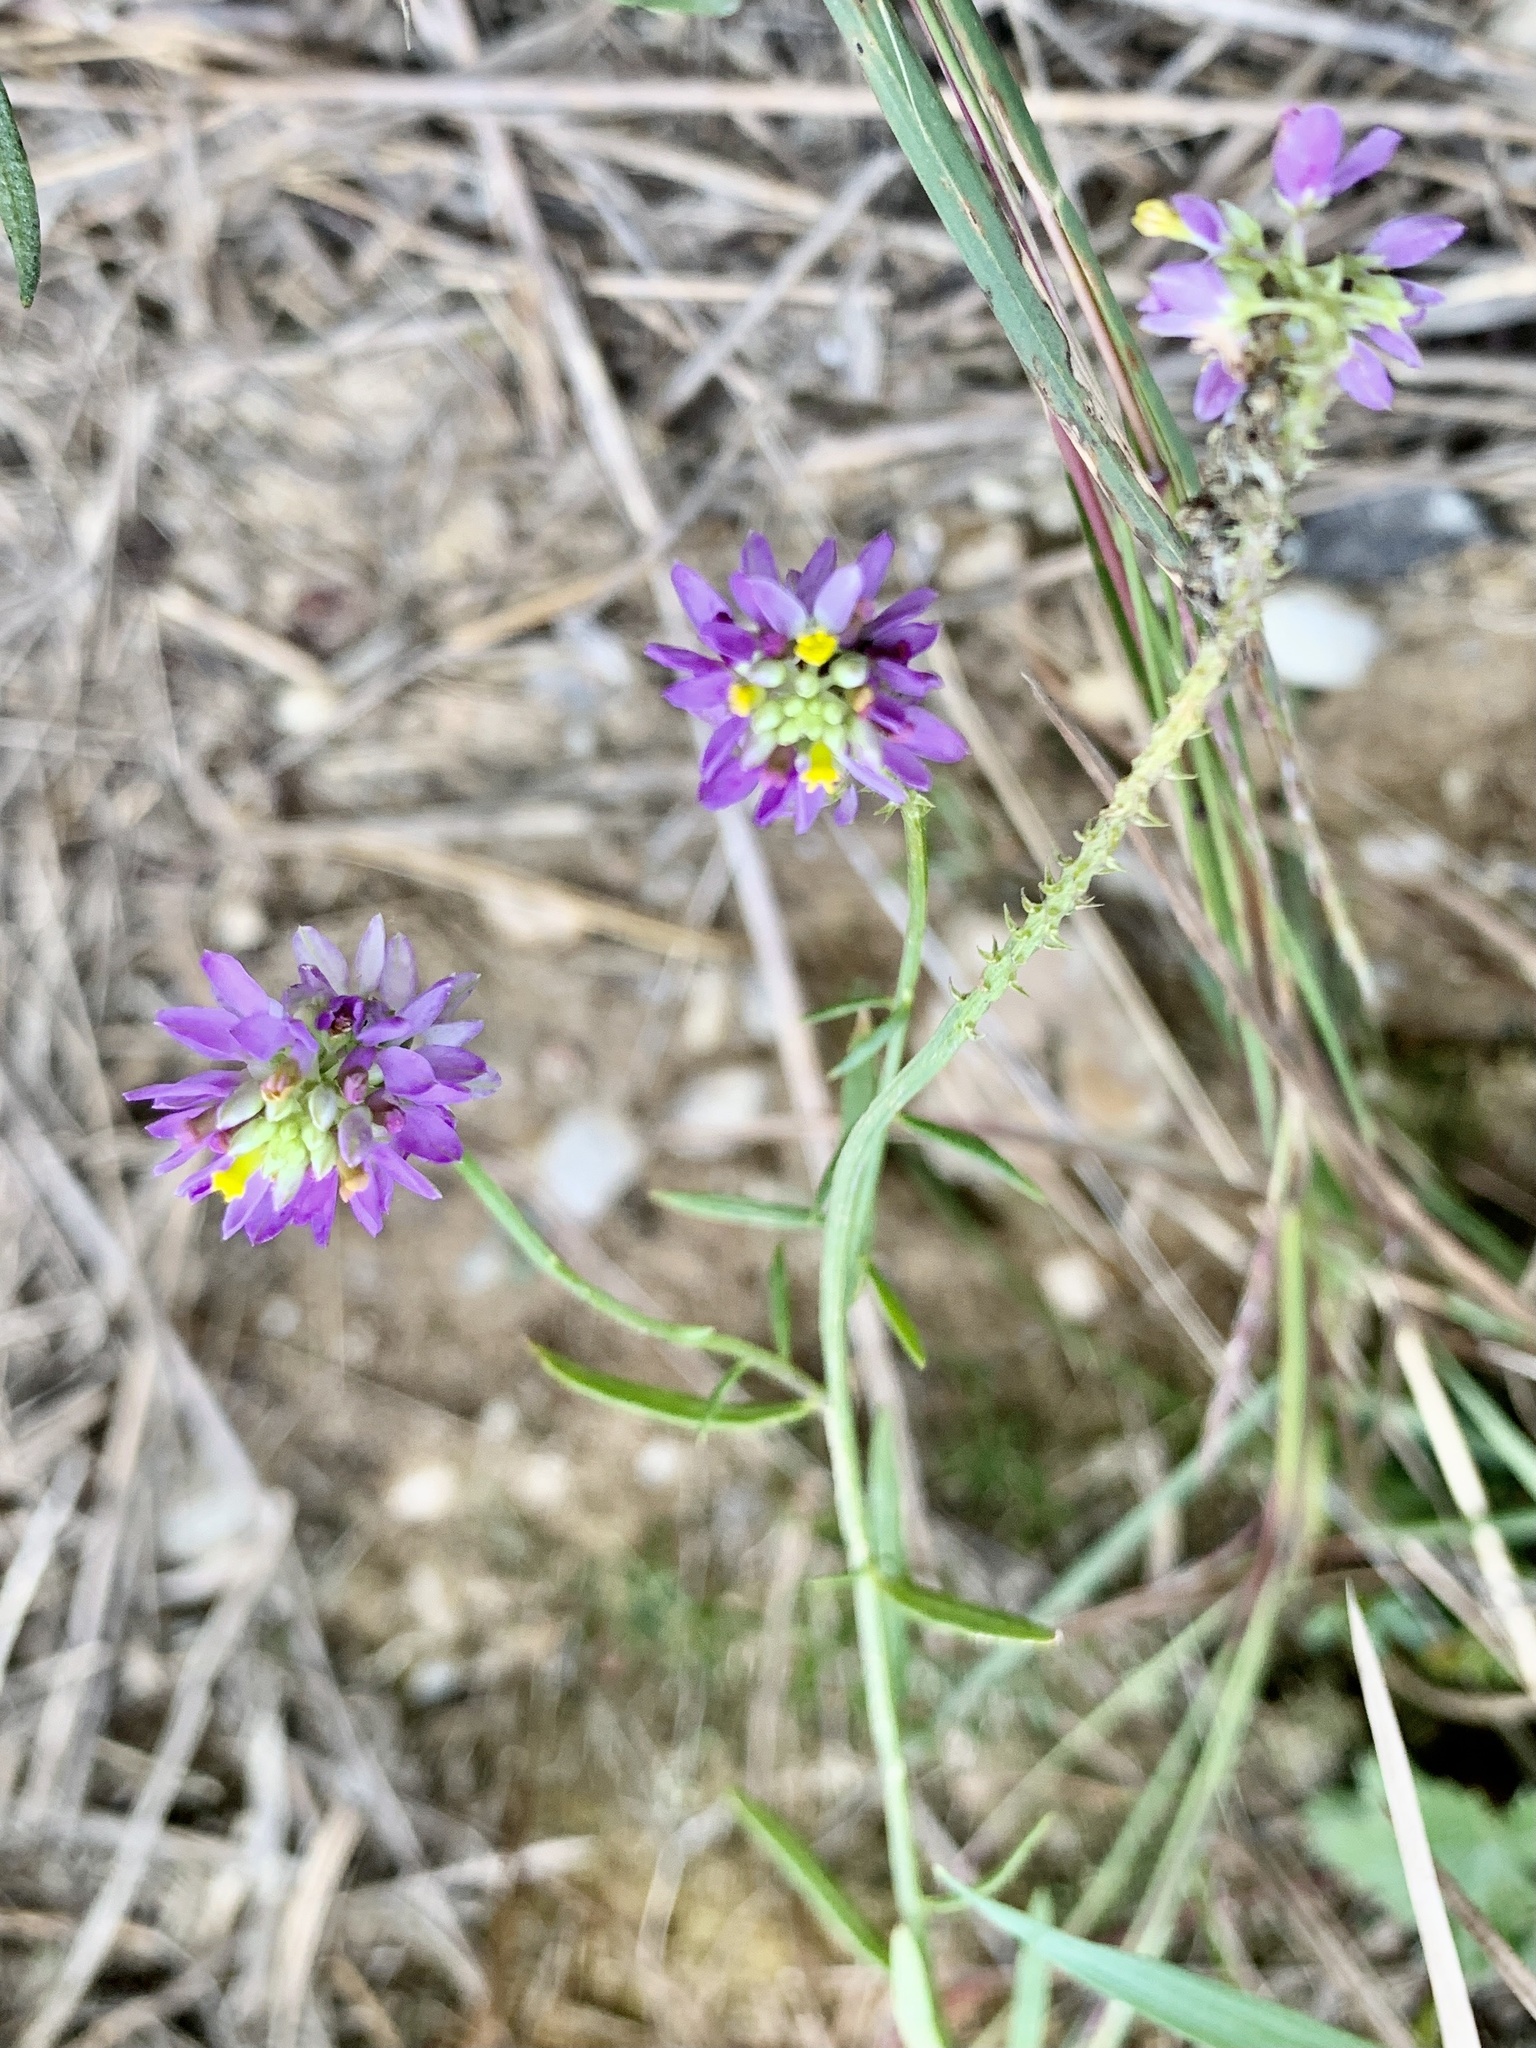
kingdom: Plantae
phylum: Tracheophyta
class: Magnoliopsida
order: Fabales
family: Polygalaceae
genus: Polygala
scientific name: Polygala curtissii
